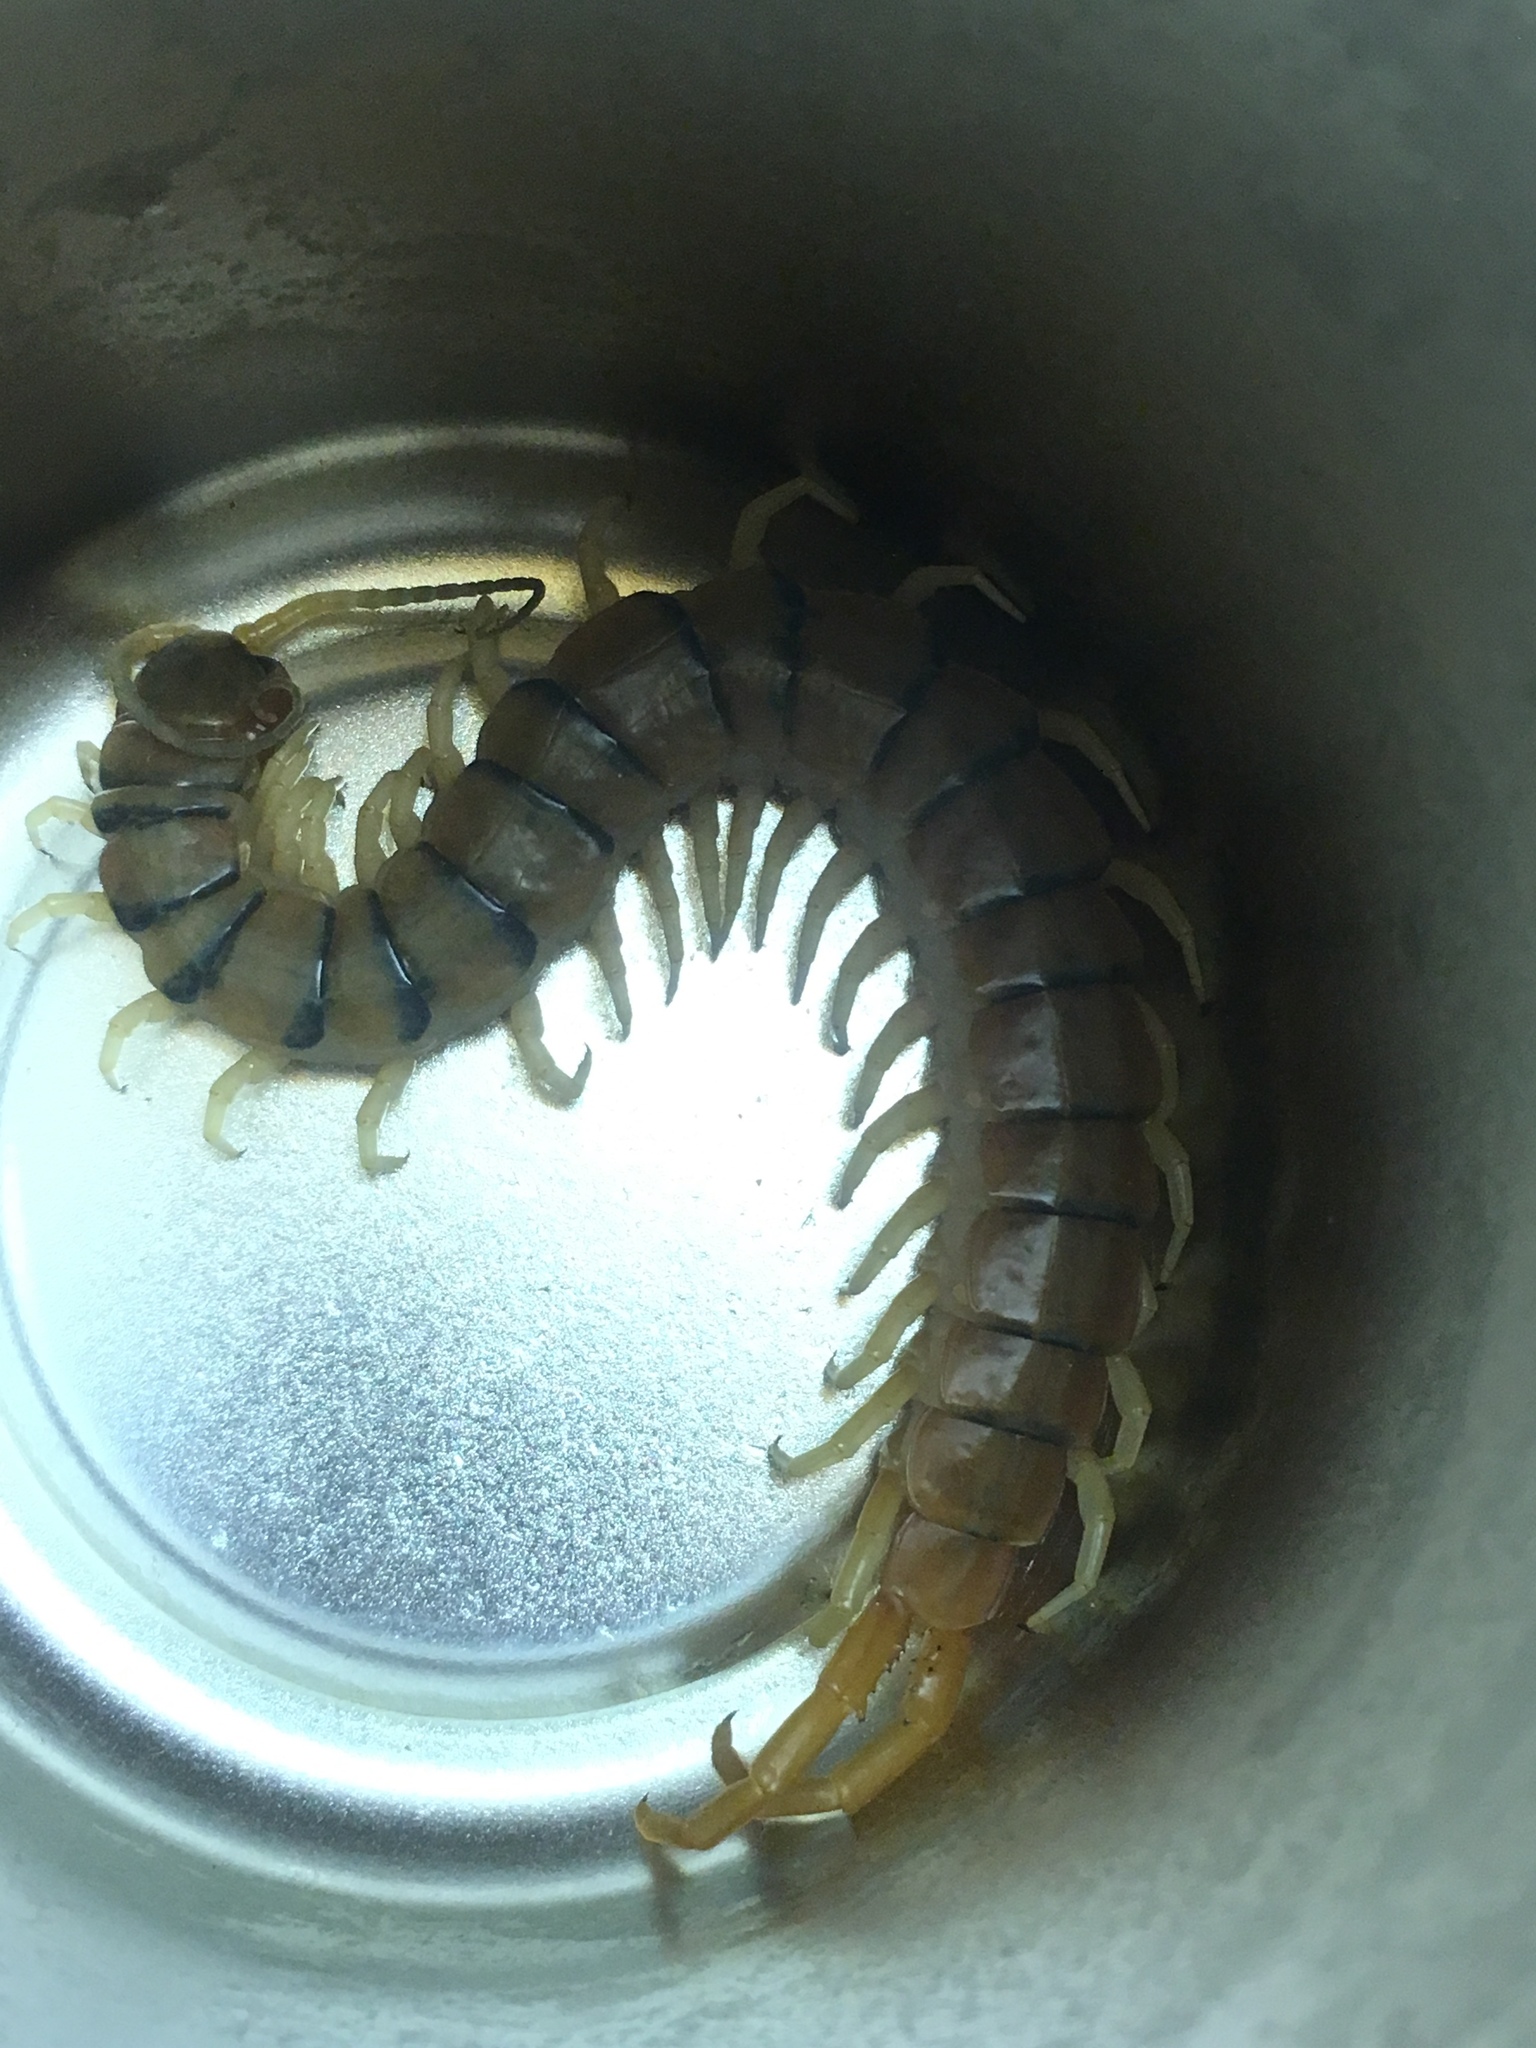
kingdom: Animalia
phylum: Arthropoda
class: Chilopoda
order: Scolopendromorpha
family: Scolopendridae
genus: Scolopendra
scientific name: Scolopendra polymorpha
